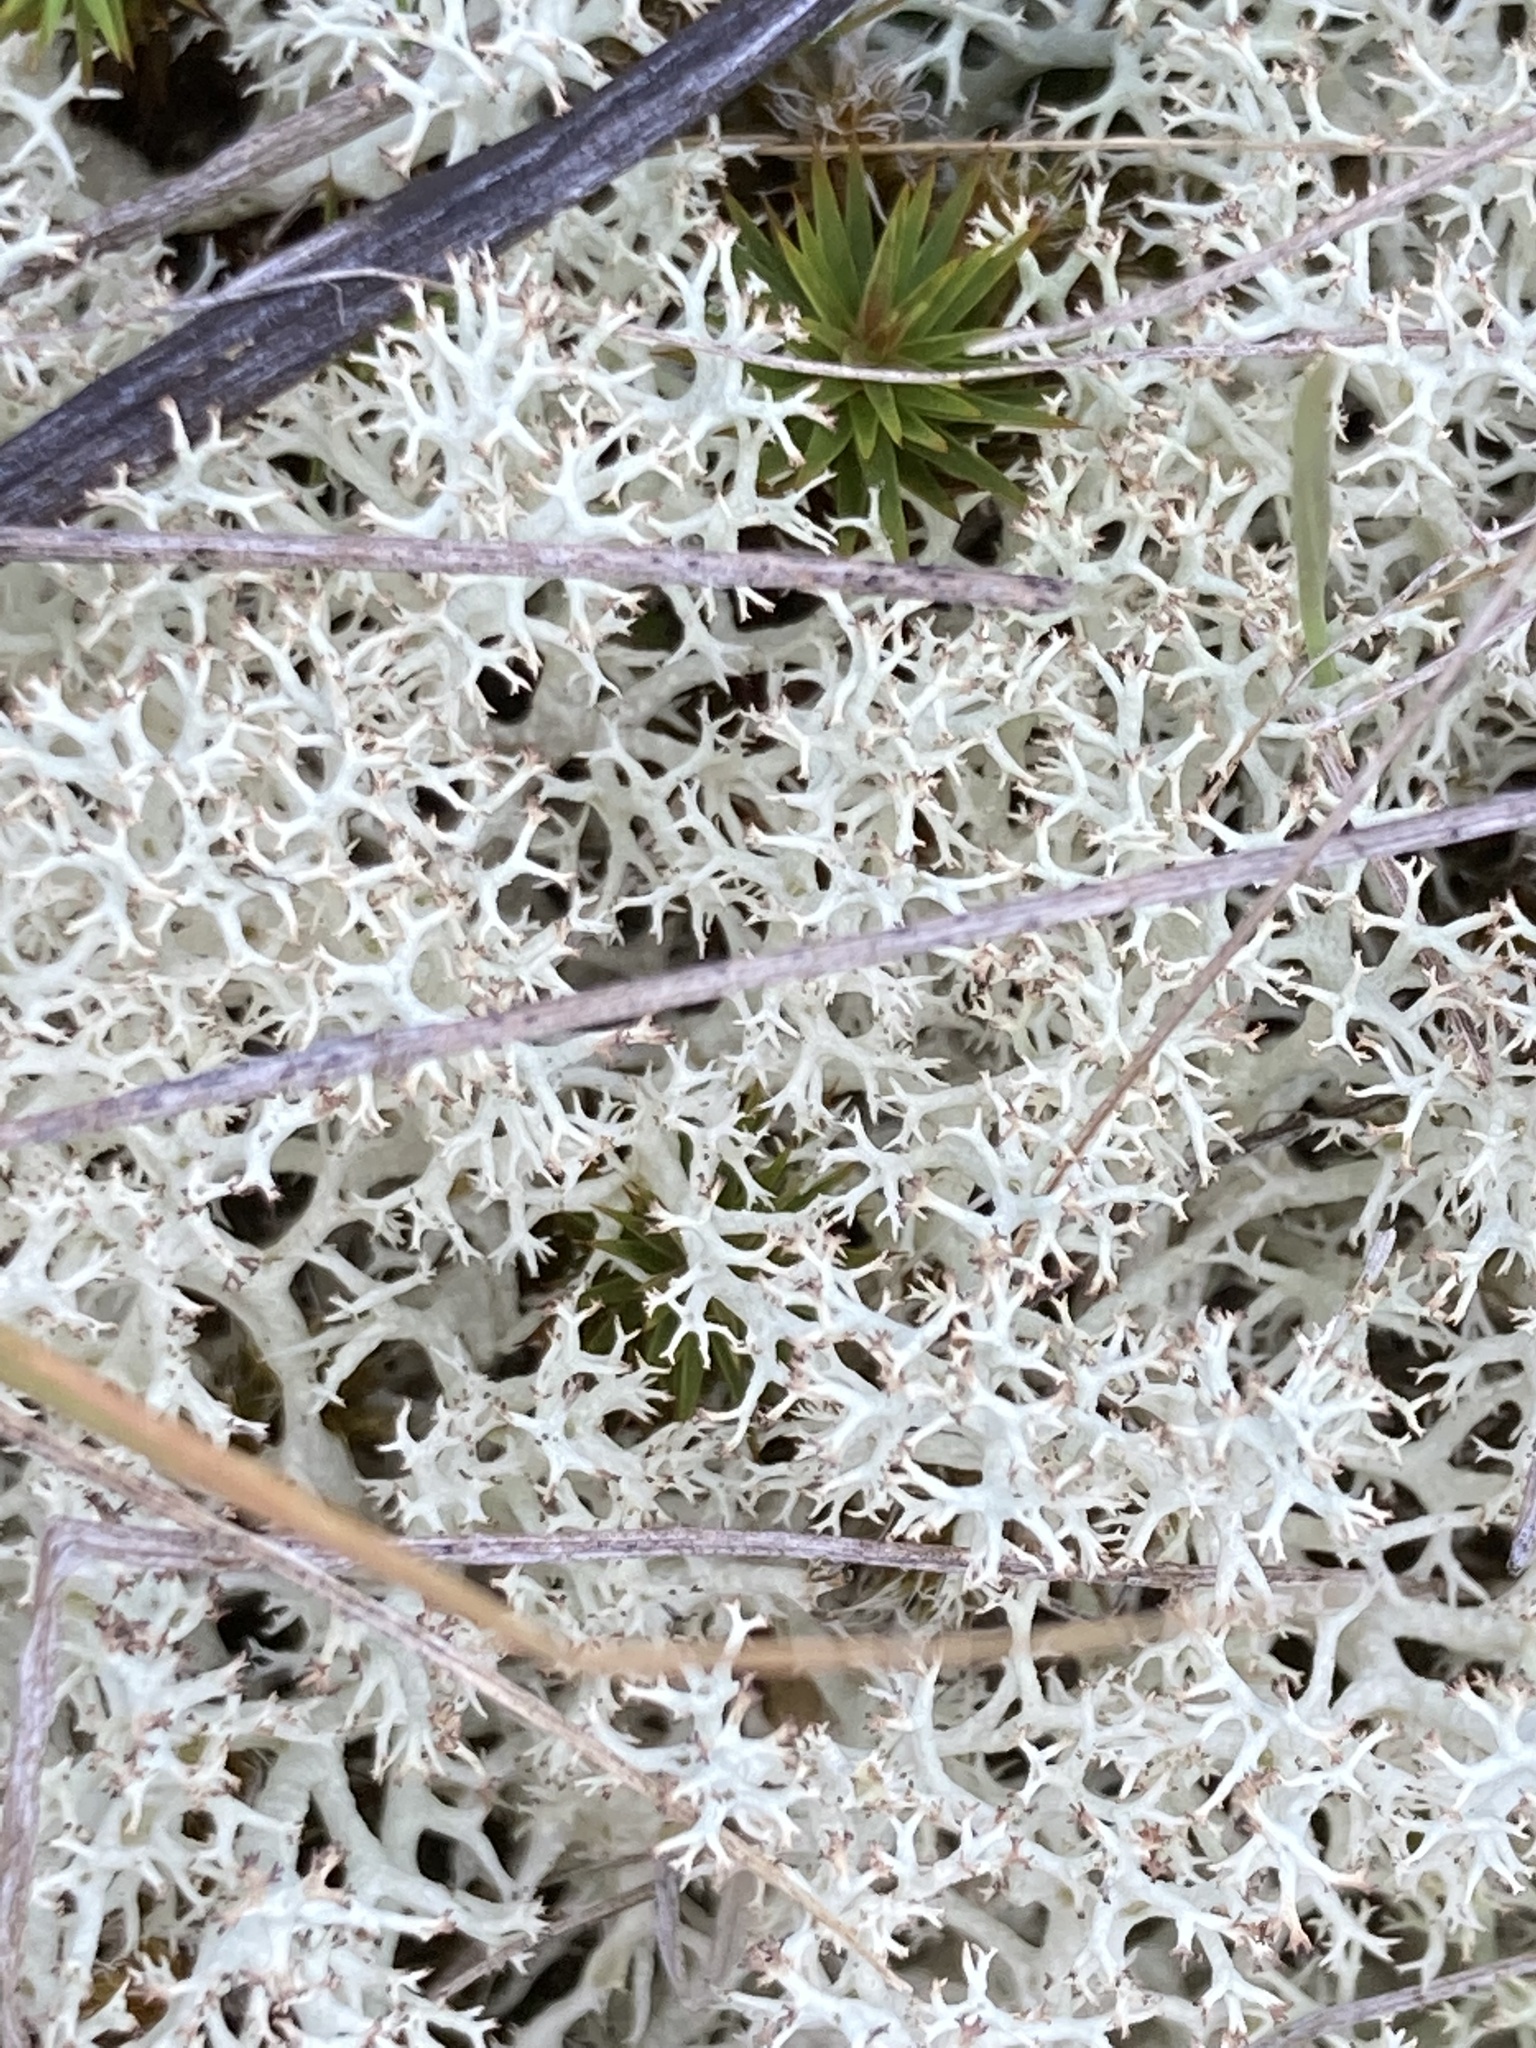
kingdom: Fungi
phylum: Ascomycota
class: Lecanoromycetes
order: Lecanorales
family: Cladoniaceae
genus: Cladonia
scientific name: Cladonia confusa
